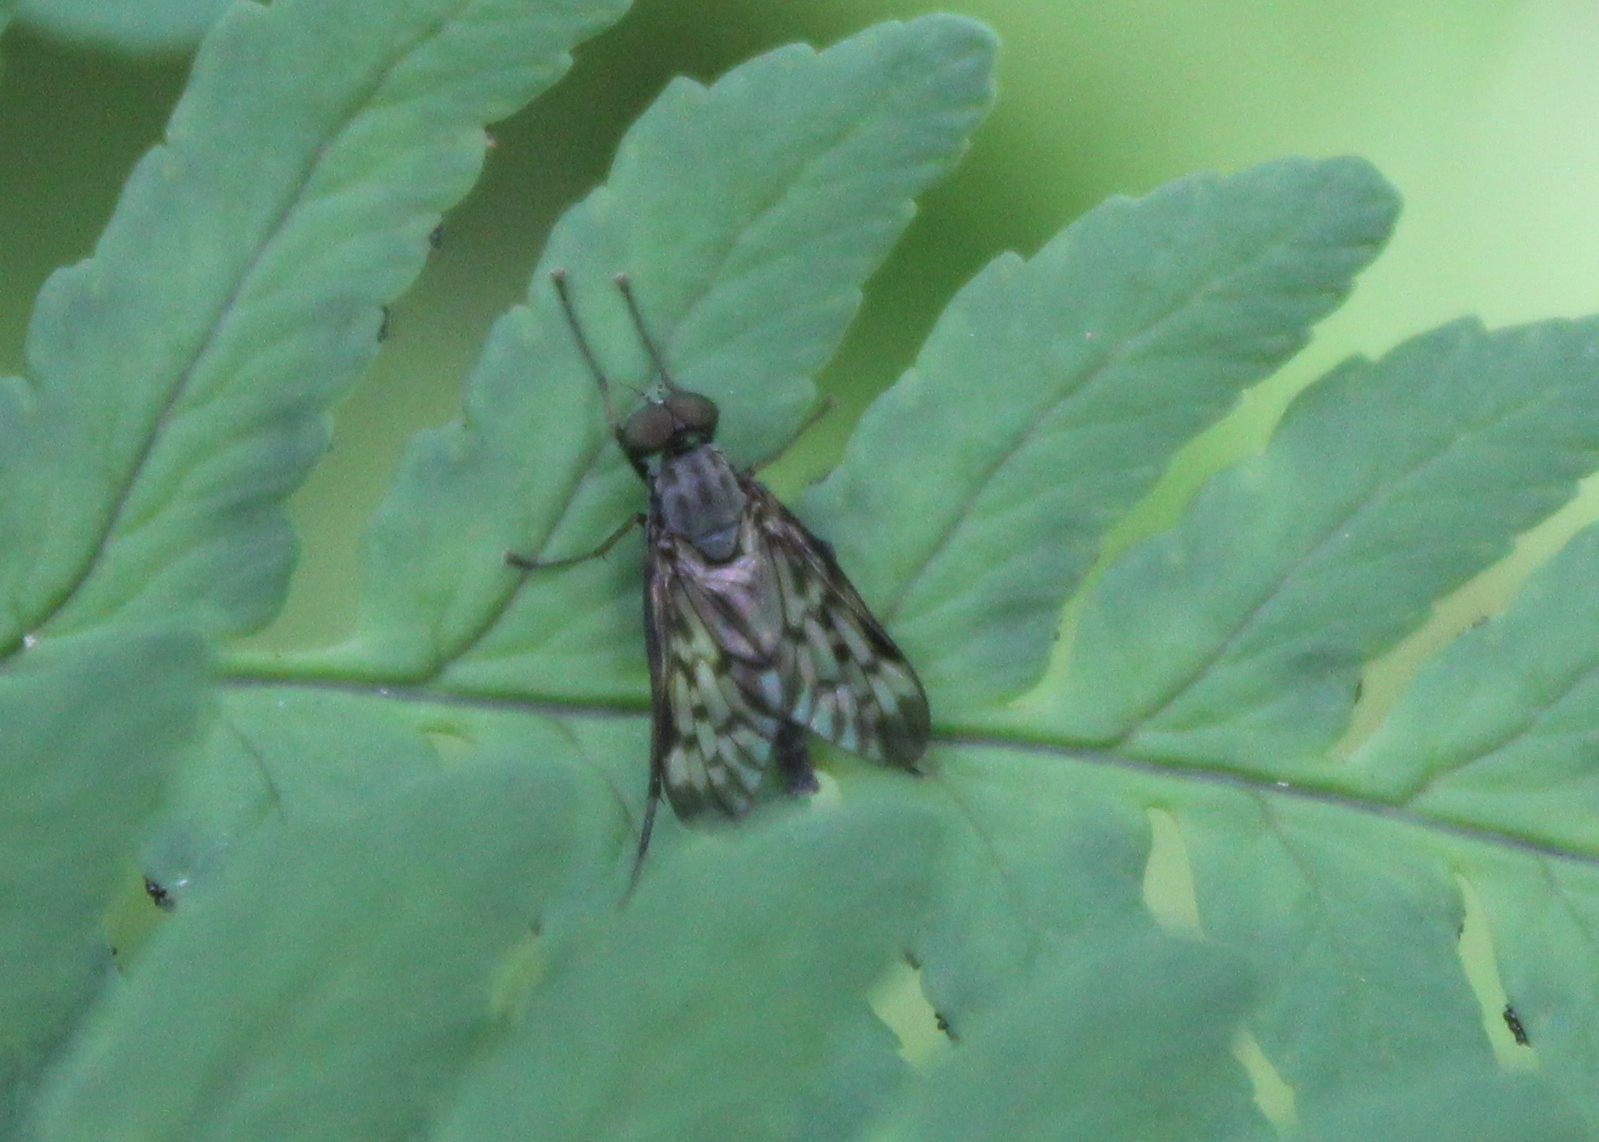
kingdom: Animalia
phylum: Arthropoda
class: Insecta
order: Diptera
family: Rhagionidae
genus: Rhagio
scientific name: Rhagio punctipennis
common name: Lesser variegated snipe fly
